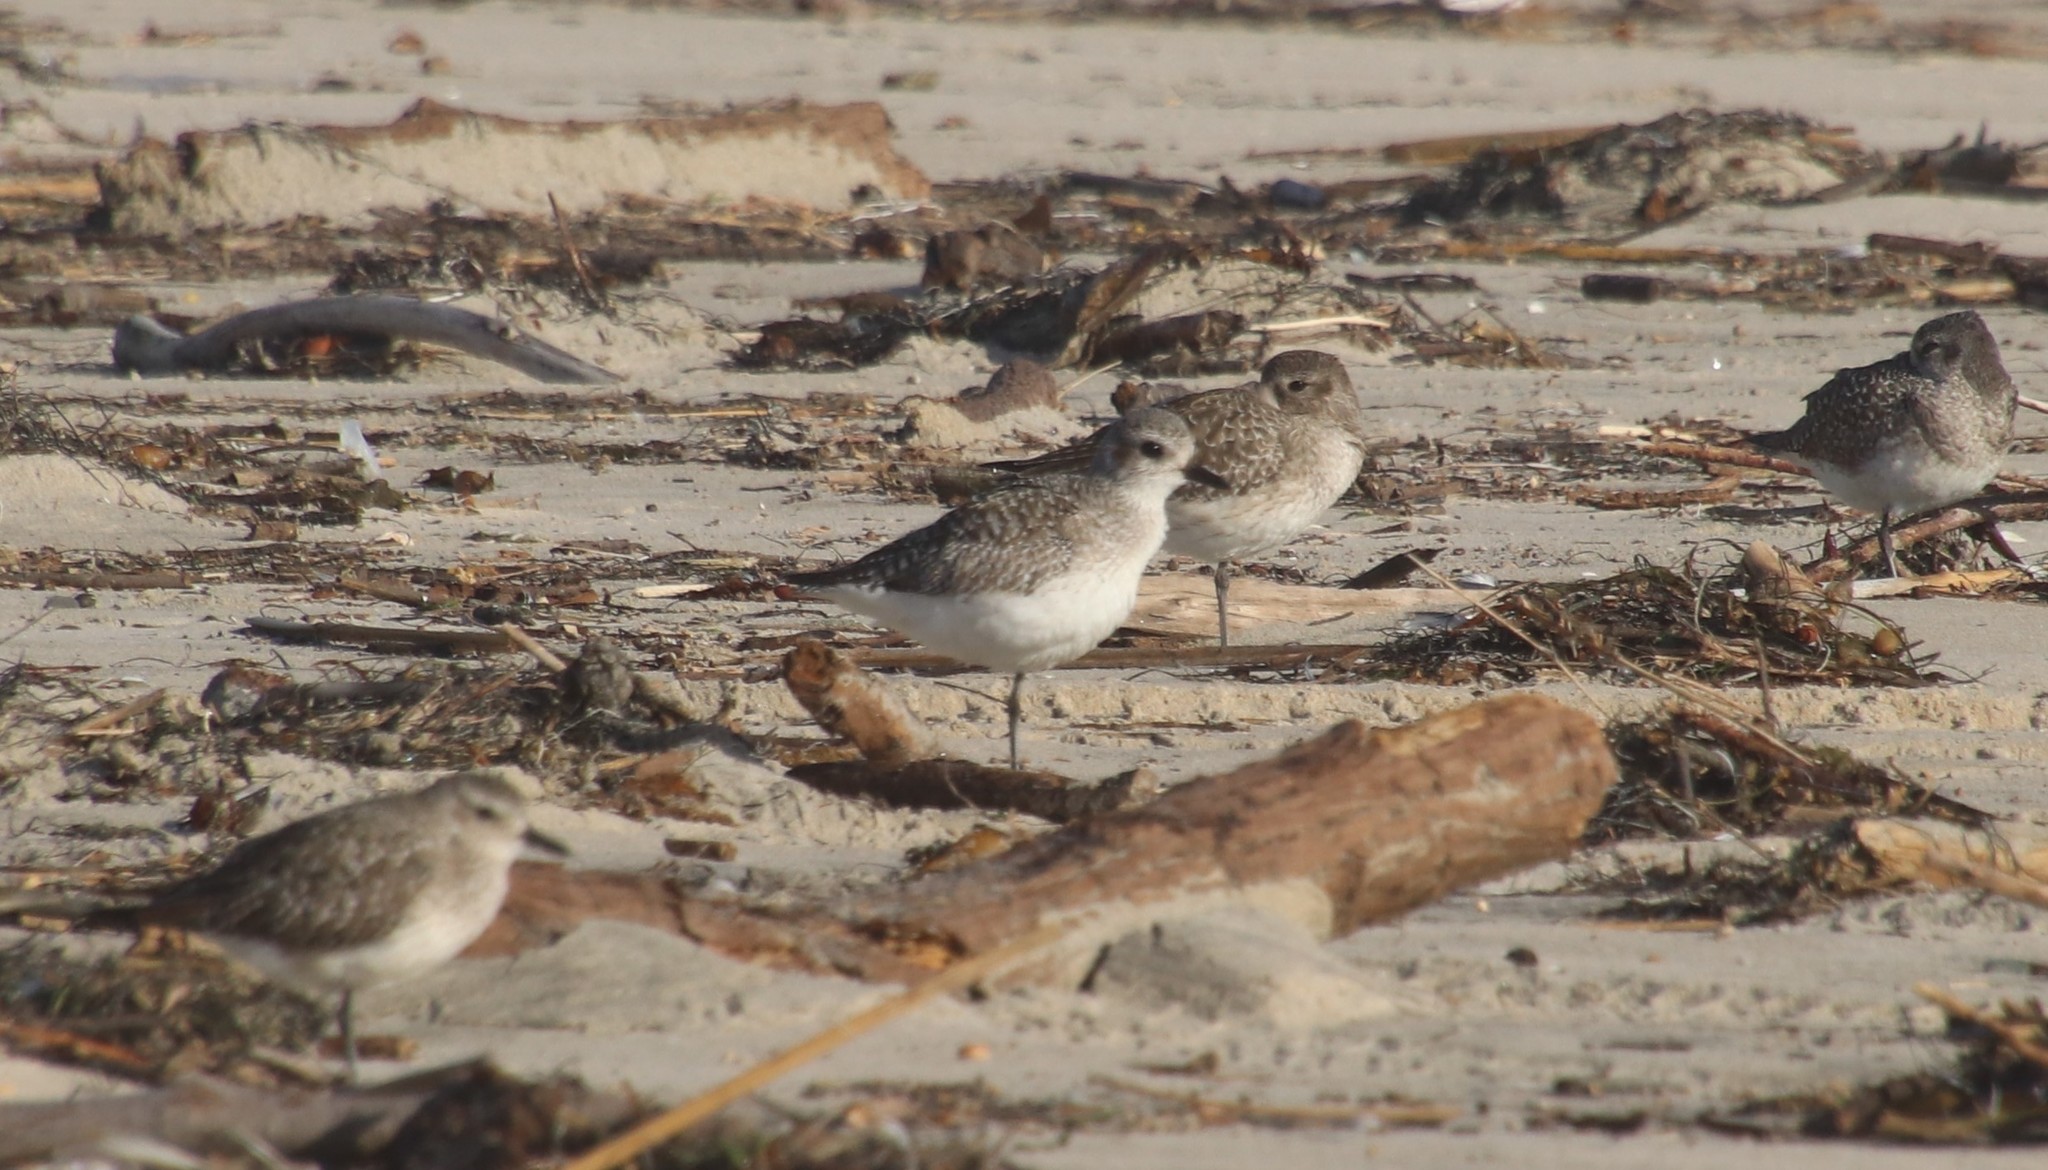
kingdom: Animalia
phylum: Chordata
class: Aves
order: Charadriiformes
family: Charadriidae
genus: Pluvialis
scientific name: Pluvialis squatarola
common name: Grey plover
